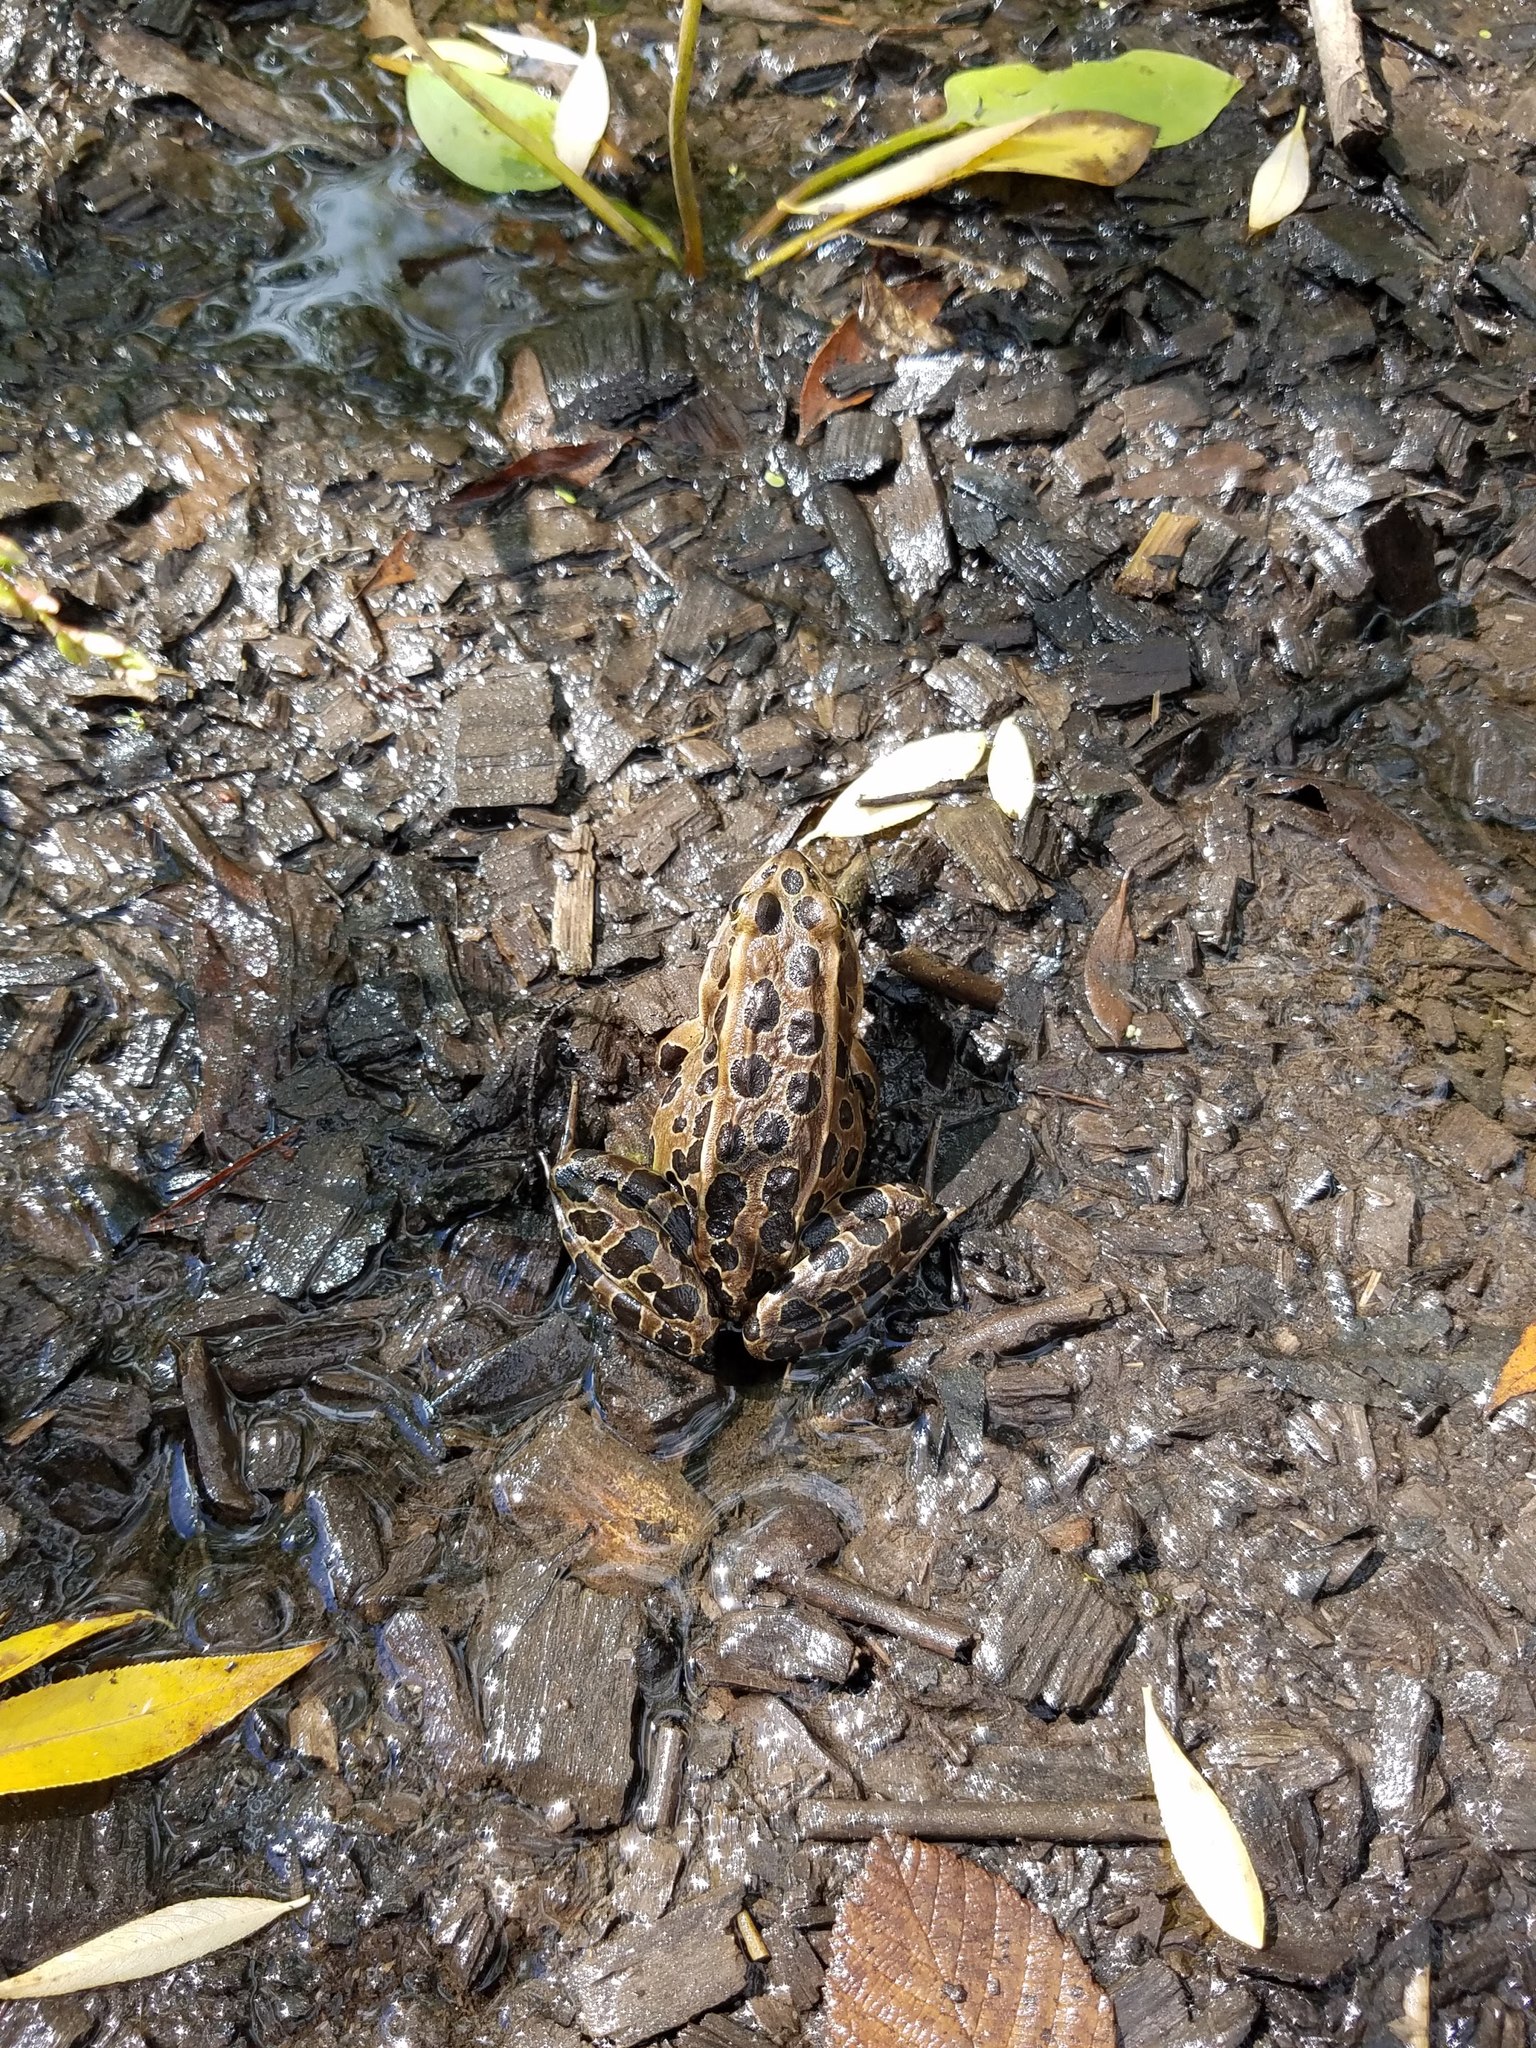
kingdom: Animalia
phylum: Chordata
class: Amphibia
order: Anura
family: Ranidae
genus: Lithobates
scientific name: Lithobates pipiens
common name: Northern leopard frog
